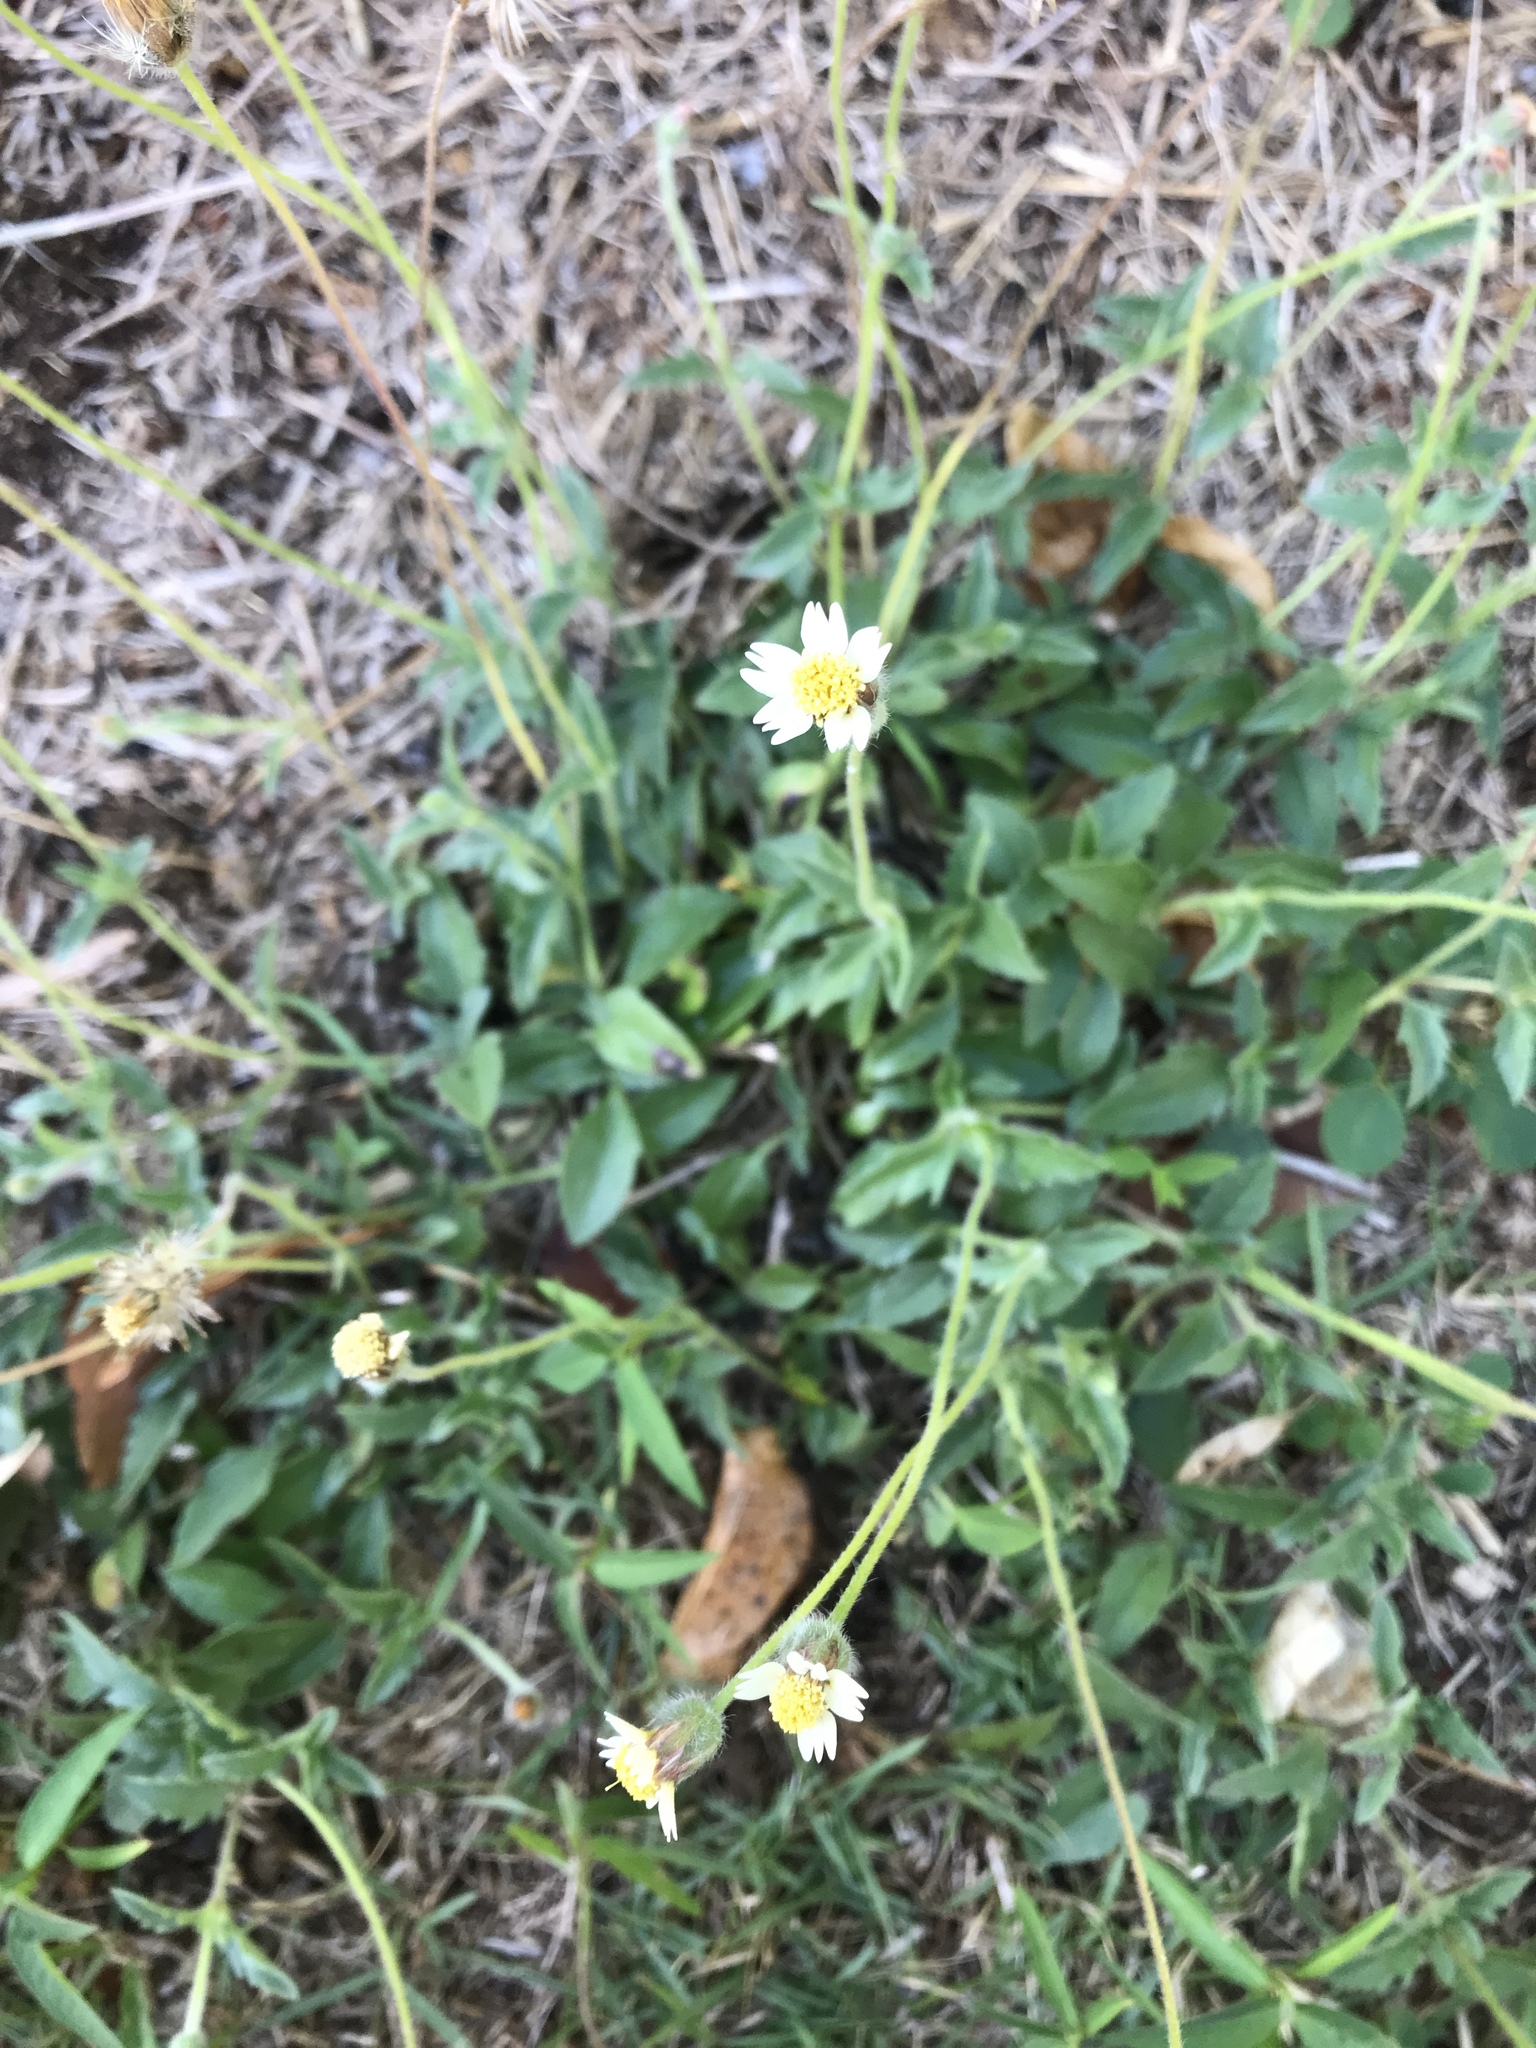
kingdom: Plantae
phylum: Tracheophyta
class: Magnoliopsida
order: Asterales
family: Asteraceae
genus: Tridax
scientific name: Tridax procumbens
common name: Coatbuttons
